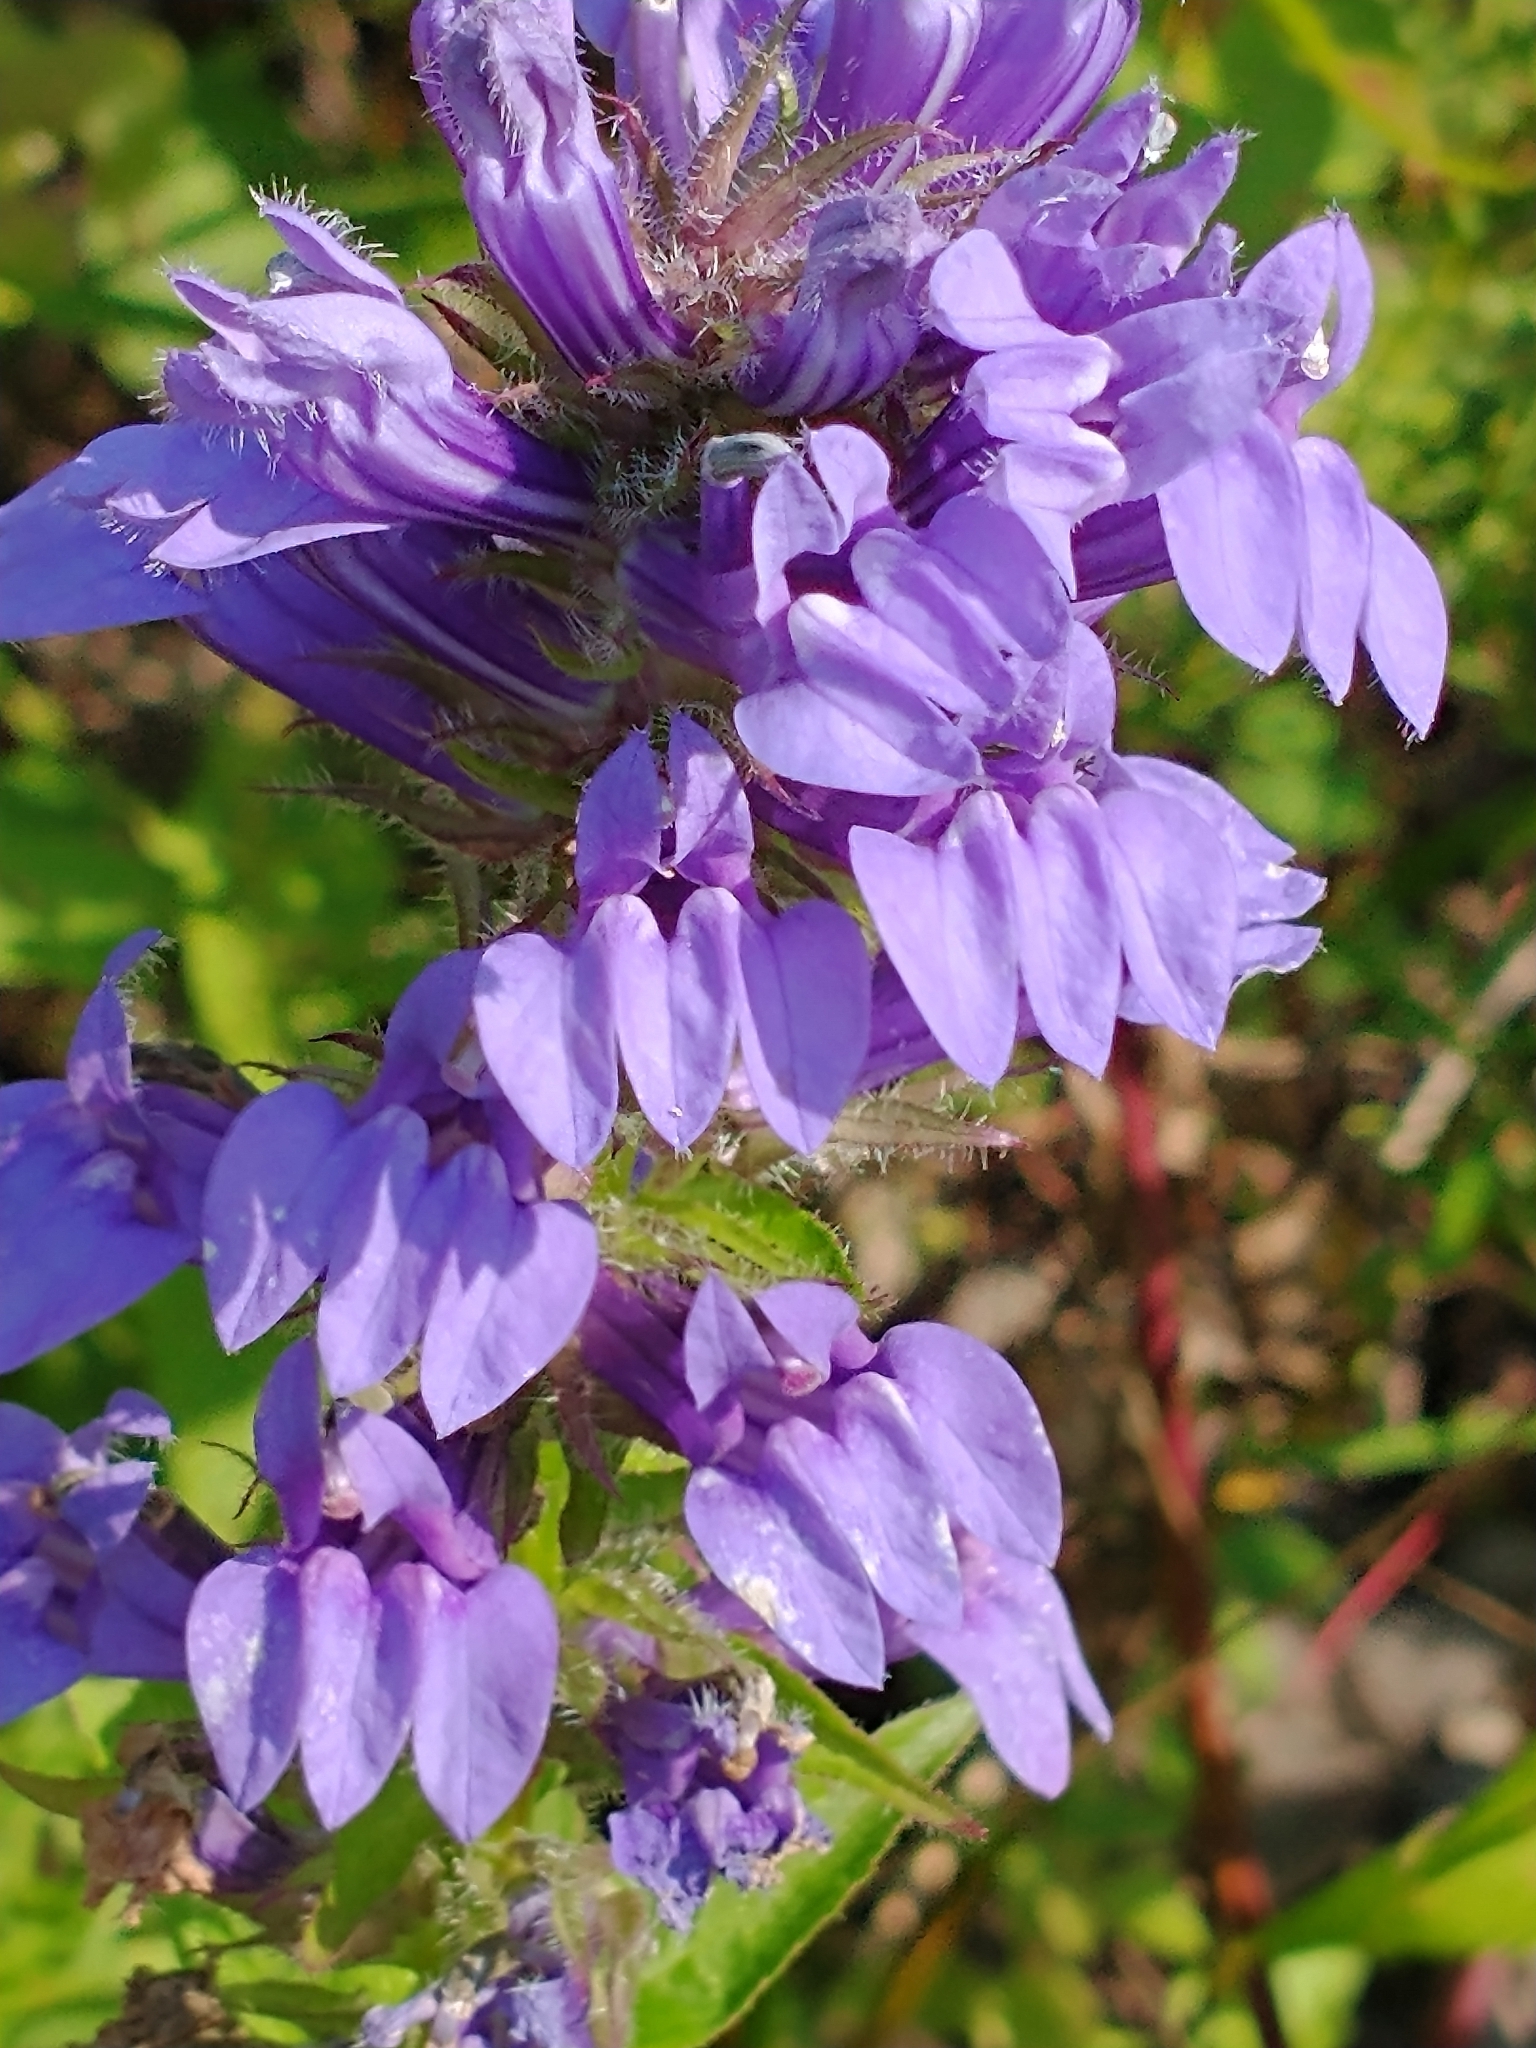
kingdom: Plantae
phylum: Tracheophyta
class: Magnoliopsida
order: Asterales
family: Campanulaceae
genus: Lobelia
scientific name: Lobelia siphilitica
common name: Great lobelia
